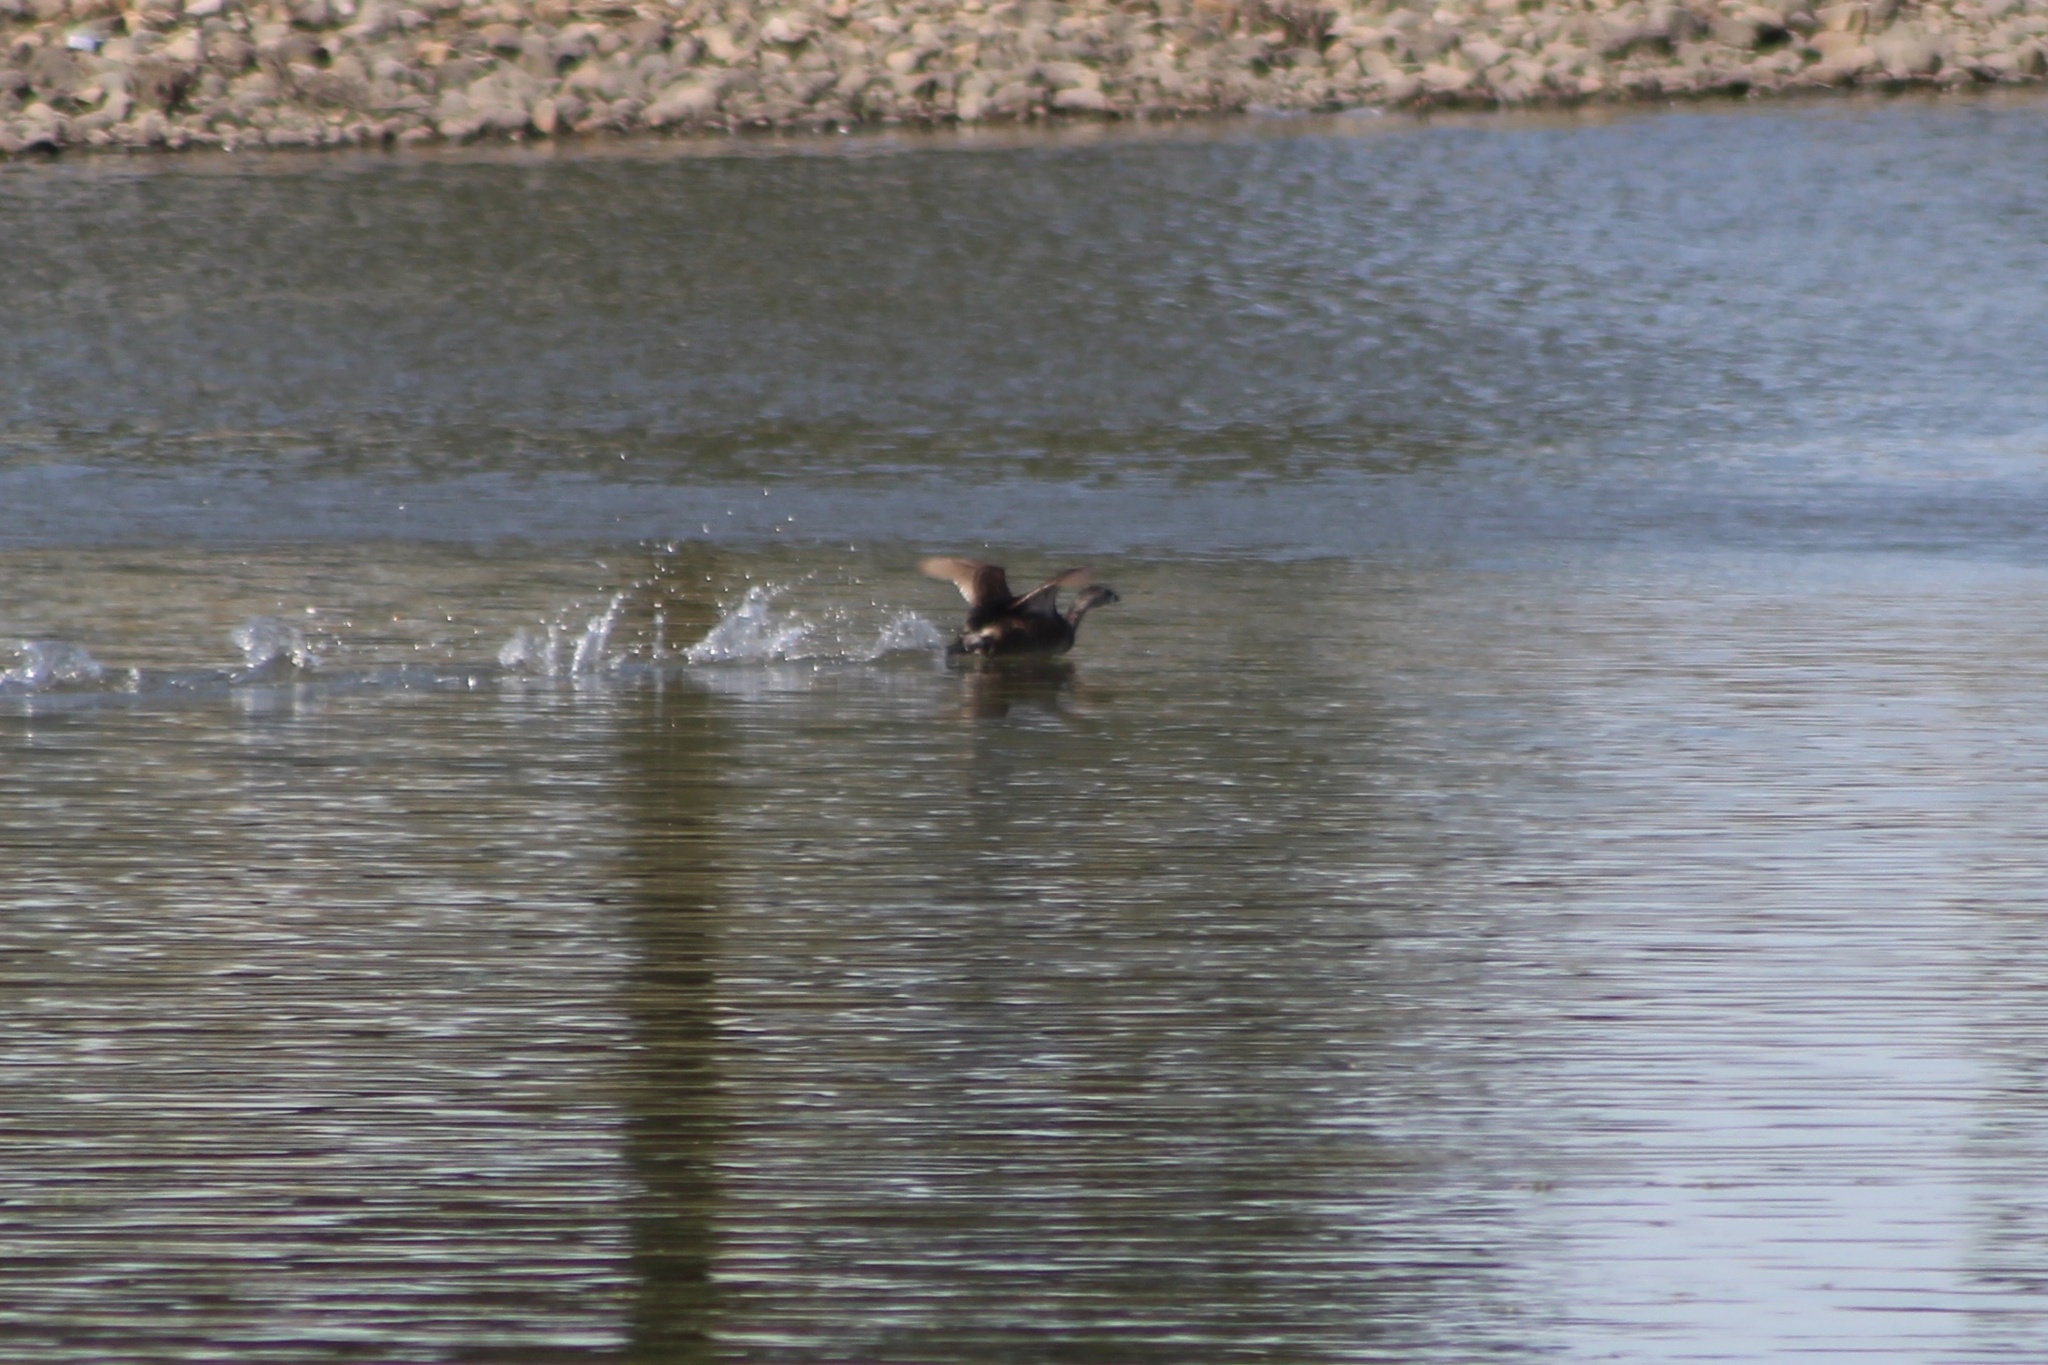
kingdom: Animalia
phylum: Chordata
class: Aves
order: Podicipediformes
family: Podicipedidae
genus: Podilymbus
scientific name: Podilymbus podiceps
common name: Pied-billed grebe
